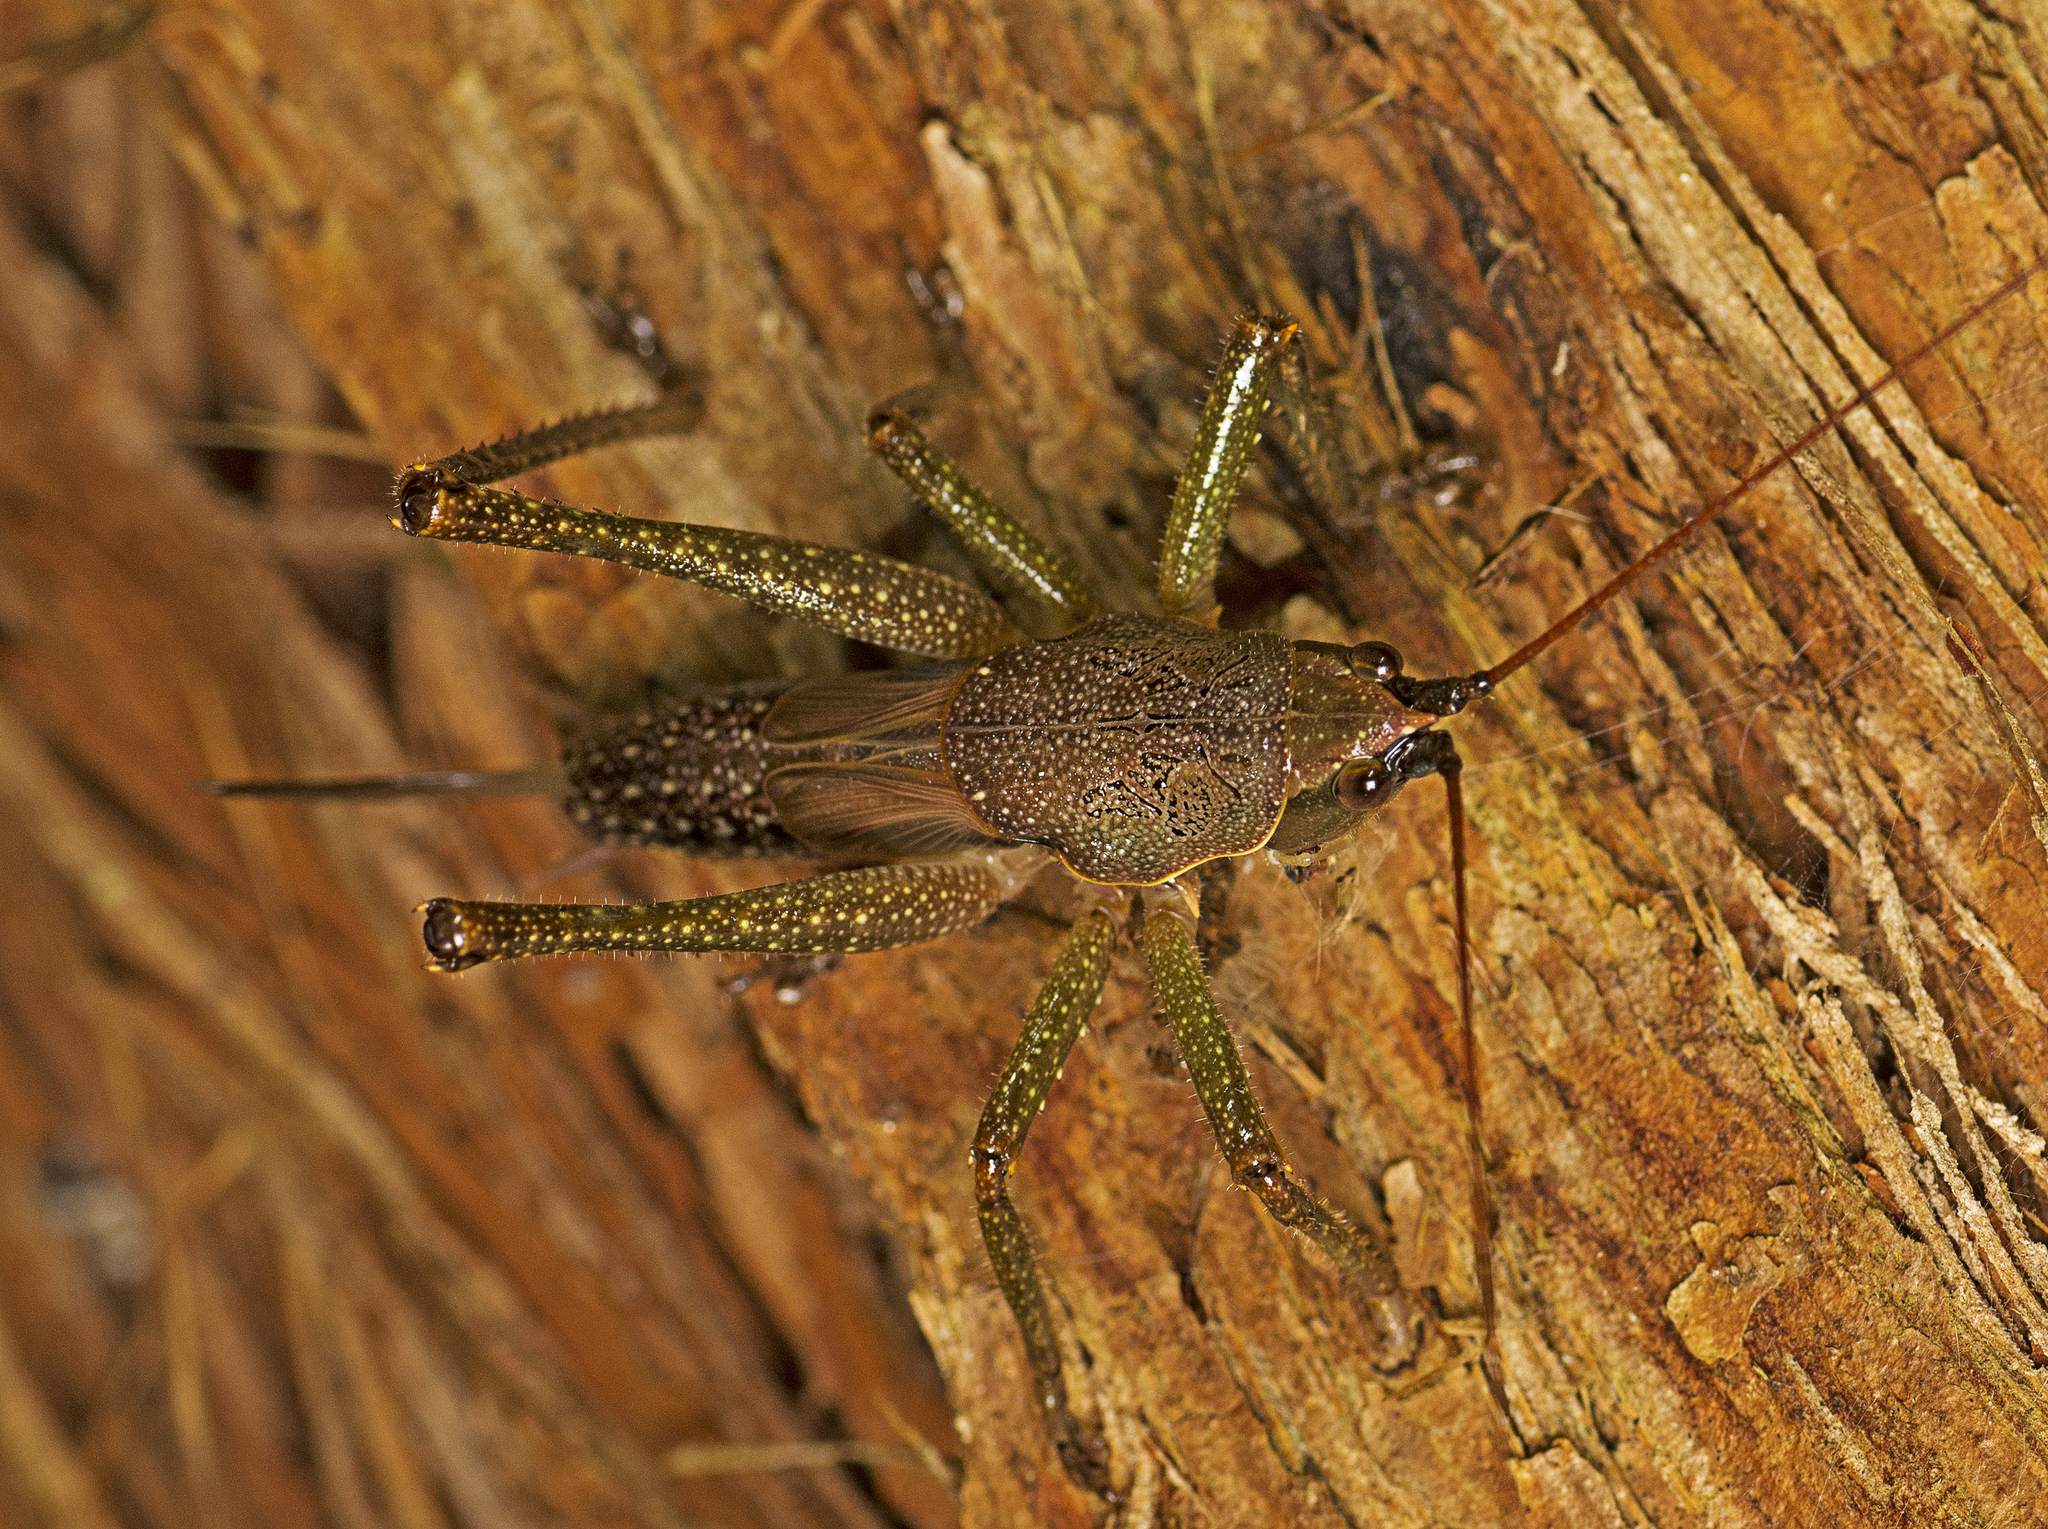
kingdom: Animalia
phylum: Arthropoda
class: Insecta
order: Orthoptera
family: Tettigoniidae
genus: Austrosalomona
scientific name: Austrosalomona falcata
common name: Olive-green coastal katydid
